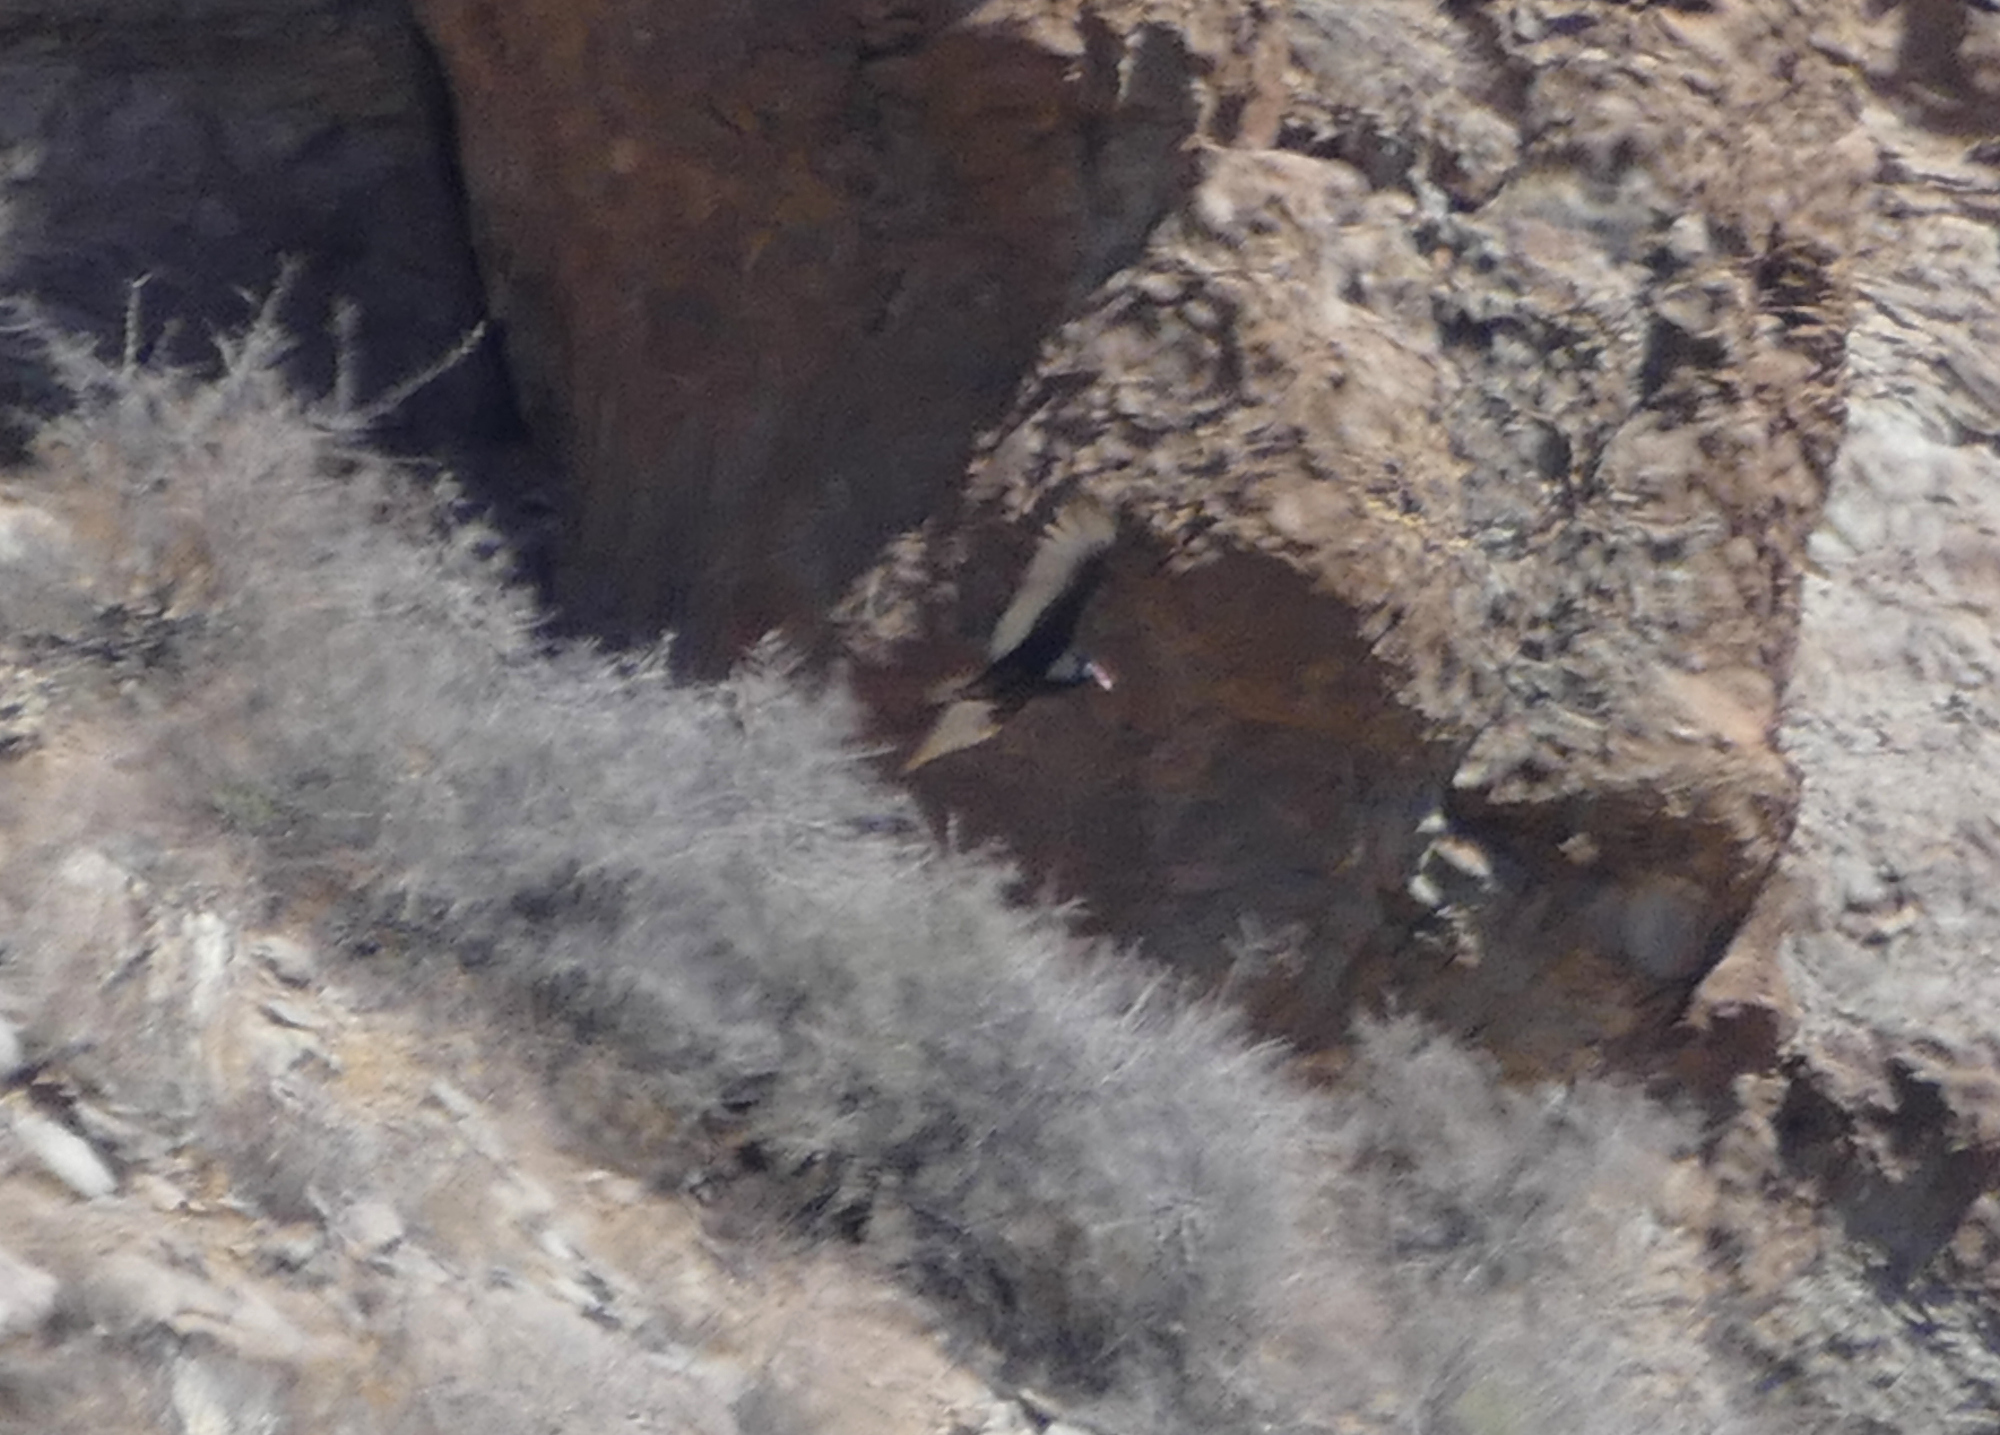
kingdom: Animalia
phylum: Chordata
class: Aves
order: Accipitriformes
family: Cathartidae
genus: Cathartes
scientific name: Cathartes aura
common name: Turkey vulture
